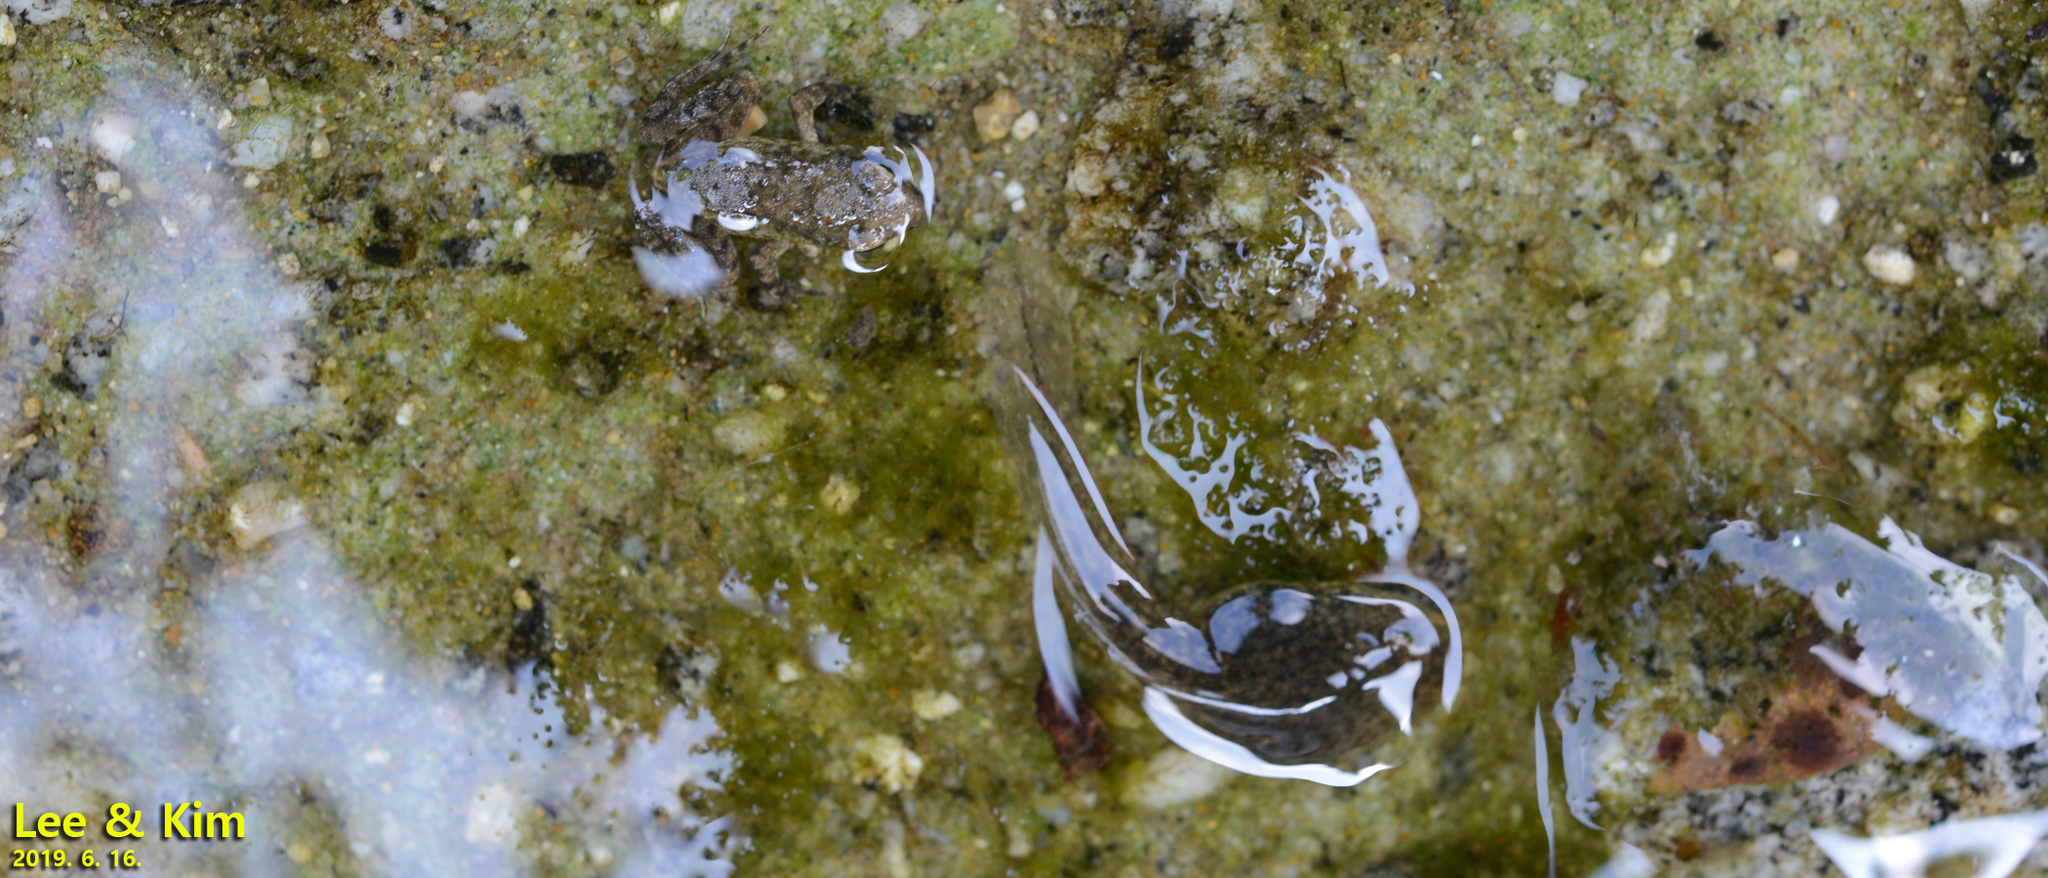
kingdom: Animalia
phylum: Chordata
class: Amphibia
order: Anura
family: Ranidae
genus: Rana
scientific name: Rana huanrenensis
